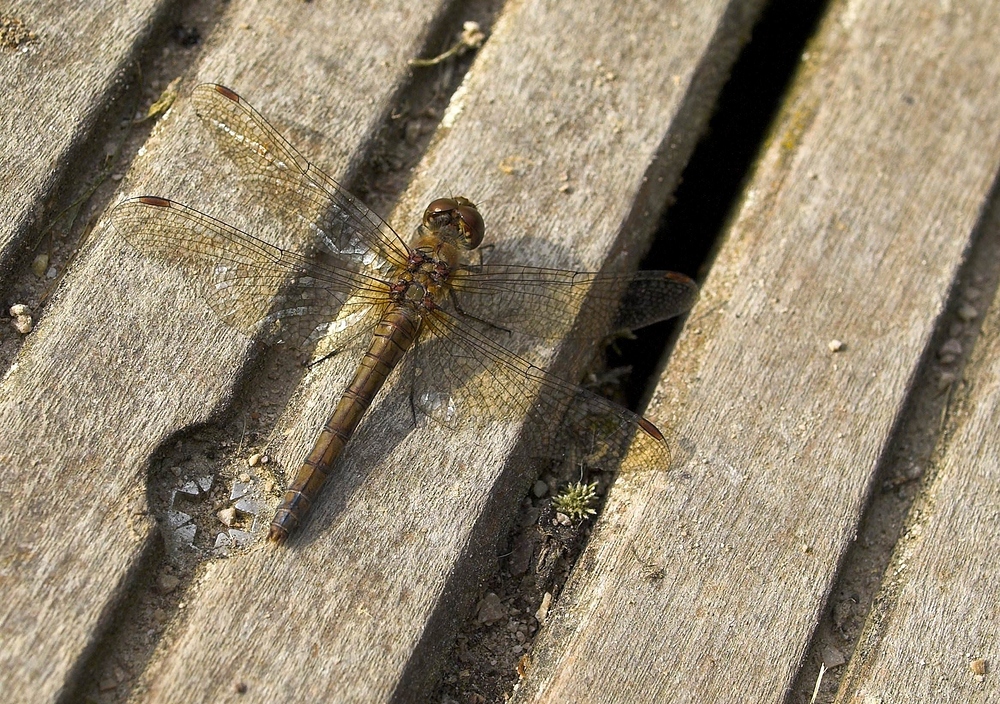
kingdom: Animalia
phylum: Arthropoda
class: Insecta
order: Odonata
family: Libellulidae
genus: Sympetrum
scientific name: Sympetrum striolatum
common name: Common darter
